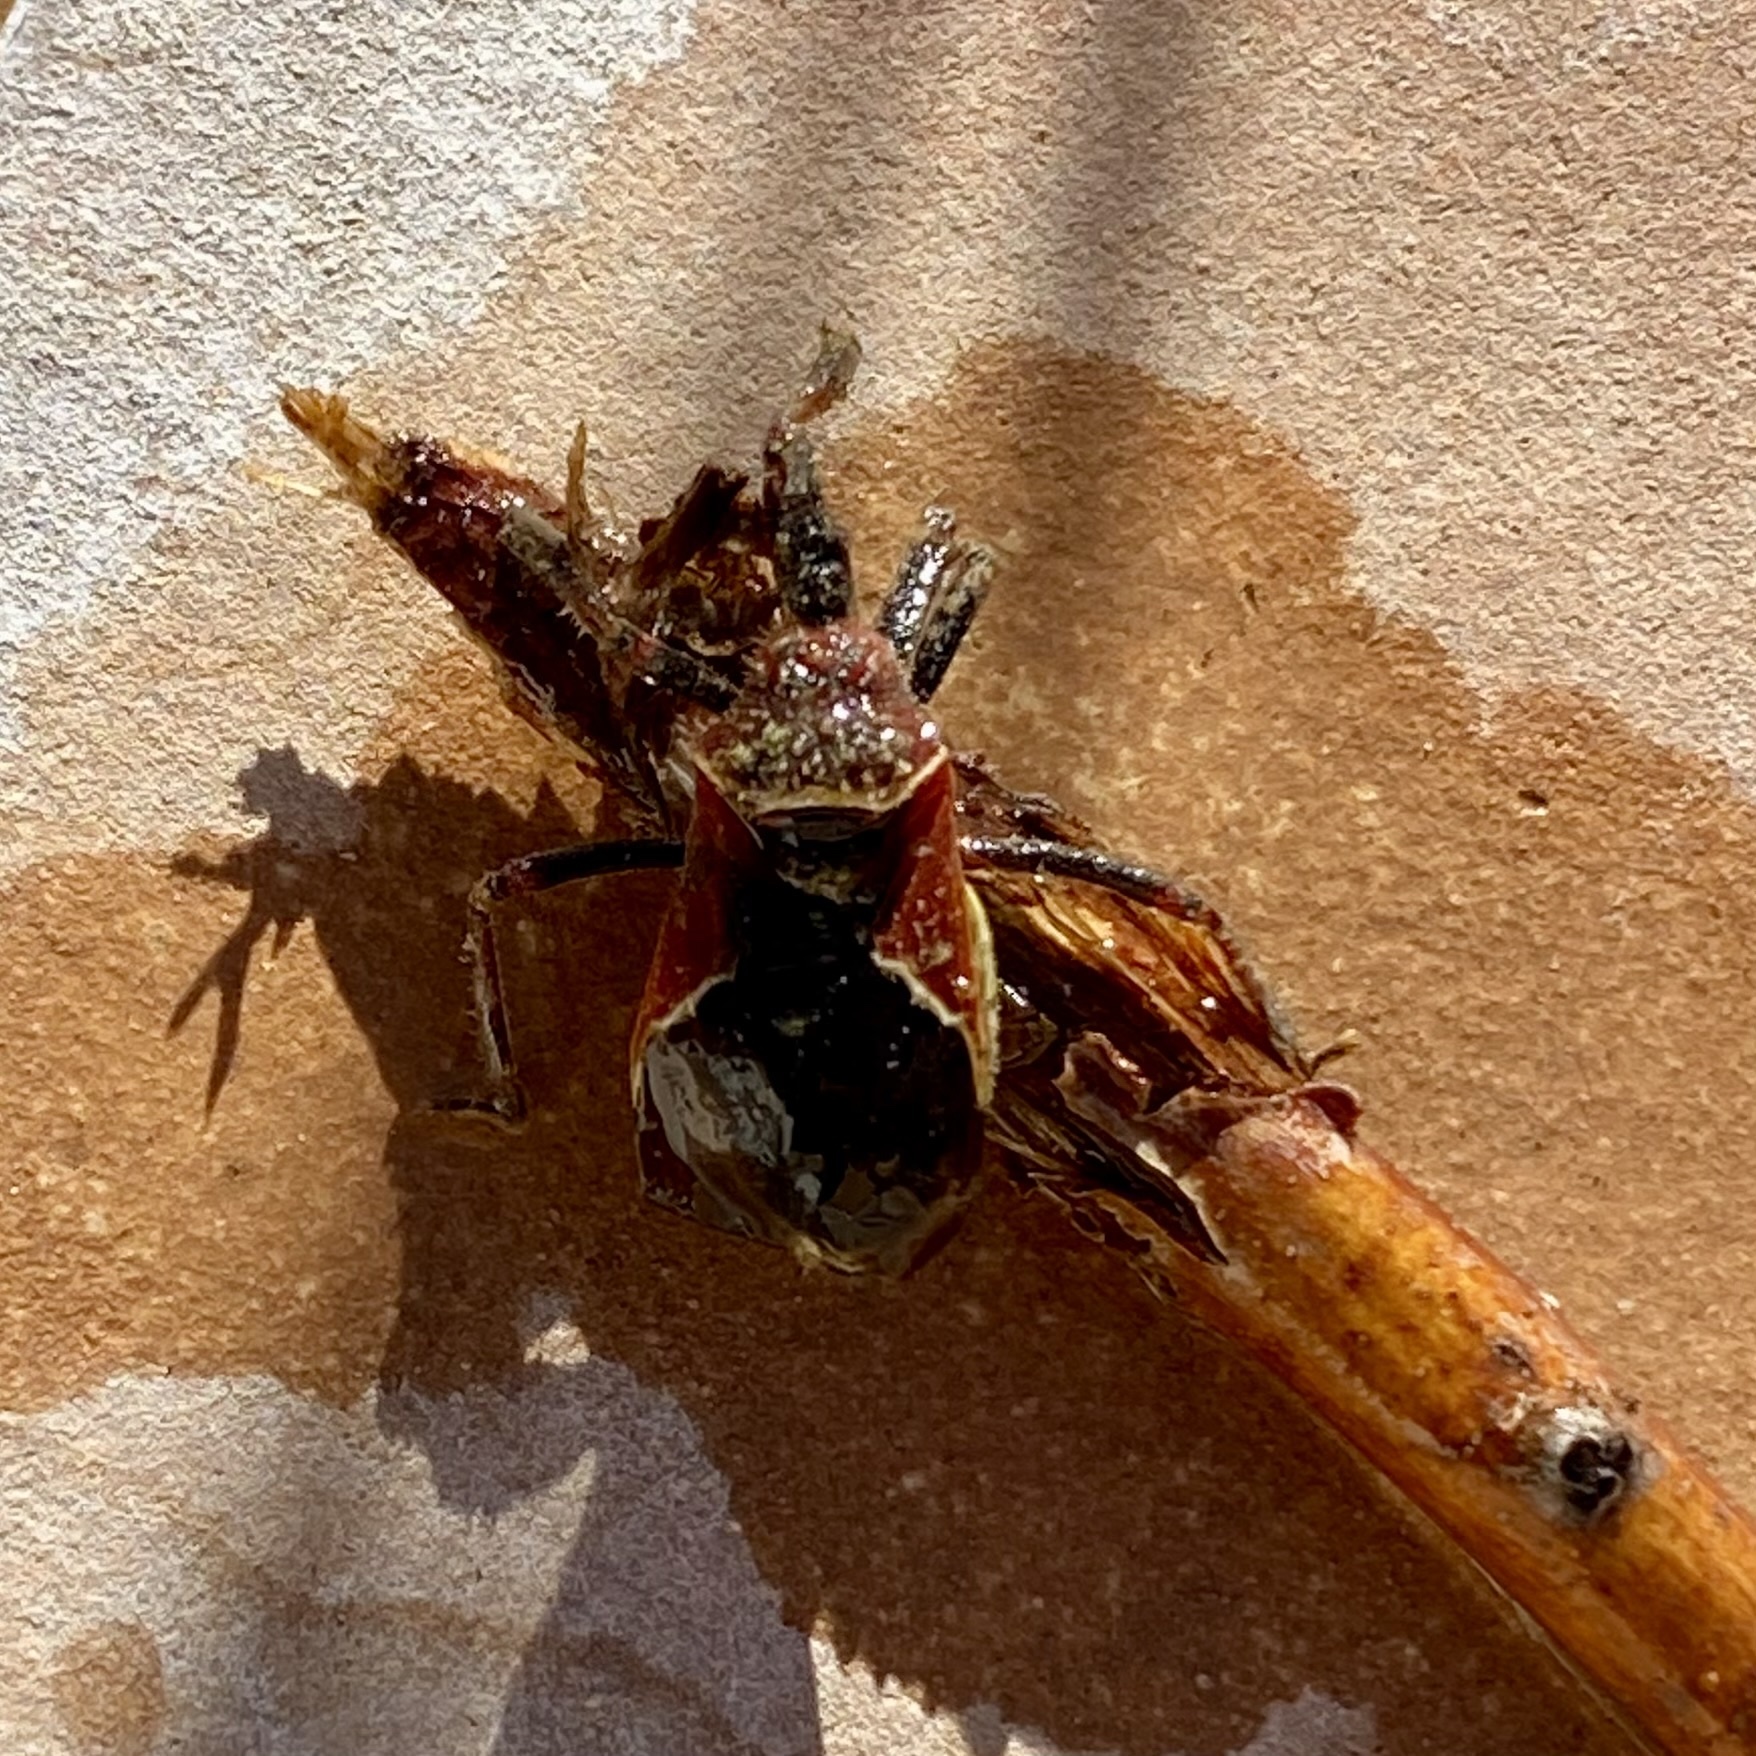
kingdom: Animalia
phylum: Arthropoda
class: Insecta
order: Hemiptera
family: Reduviidae
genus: Apiomerus
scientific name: Apiomerus spissipes
